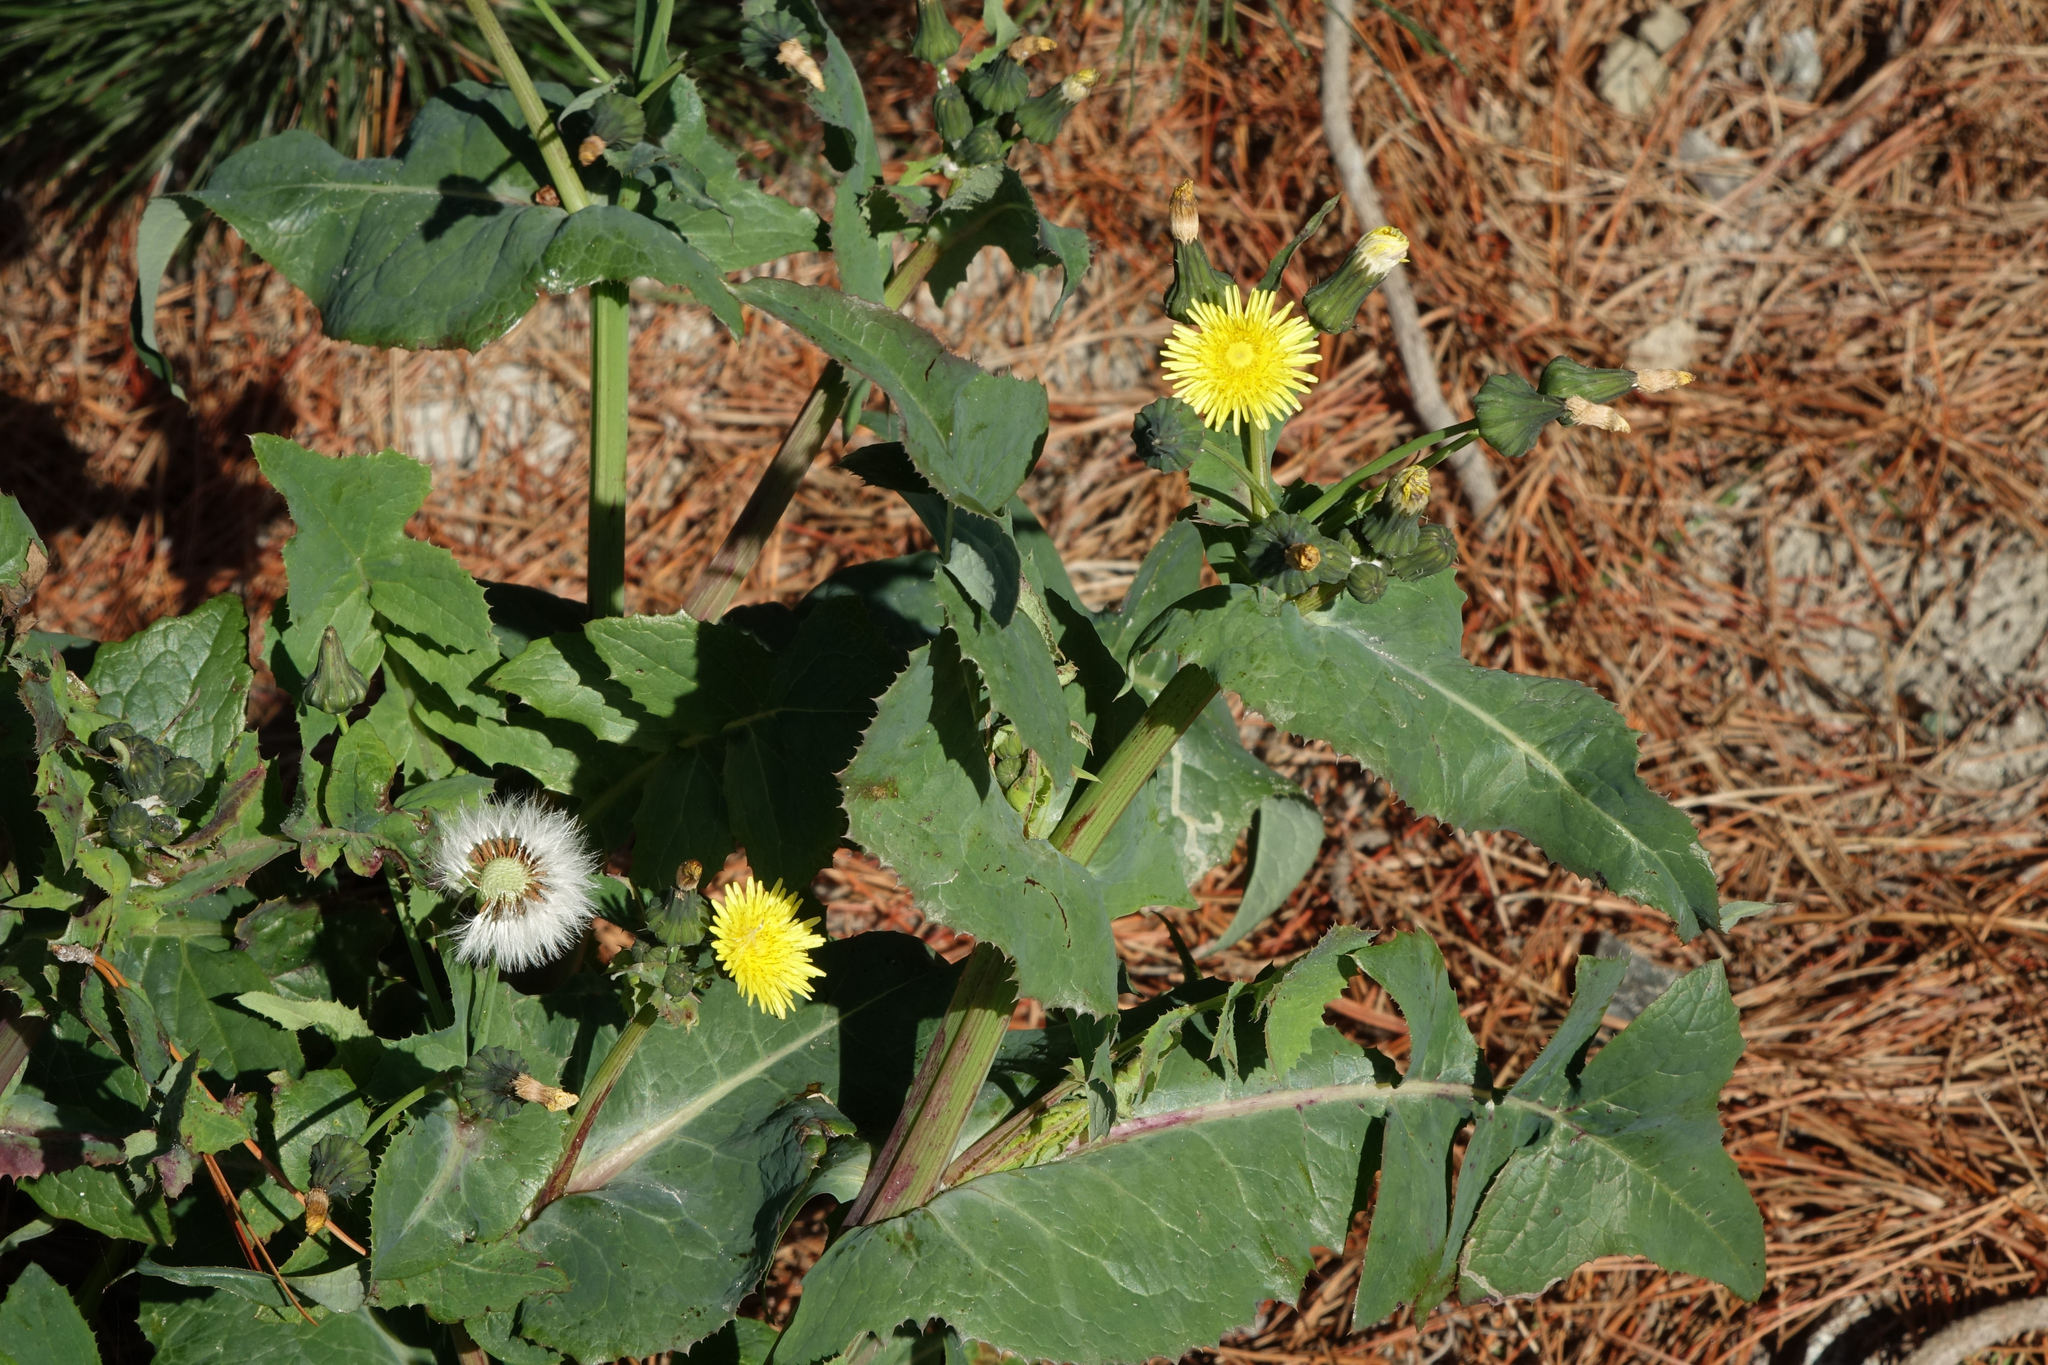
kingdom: Plantae
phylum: Tracheophyta
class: Magnoliopsida
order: Asterales
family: Asteraceae
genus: Sonchus
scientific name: Sonchus oleraceus
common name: Common sowthistle
